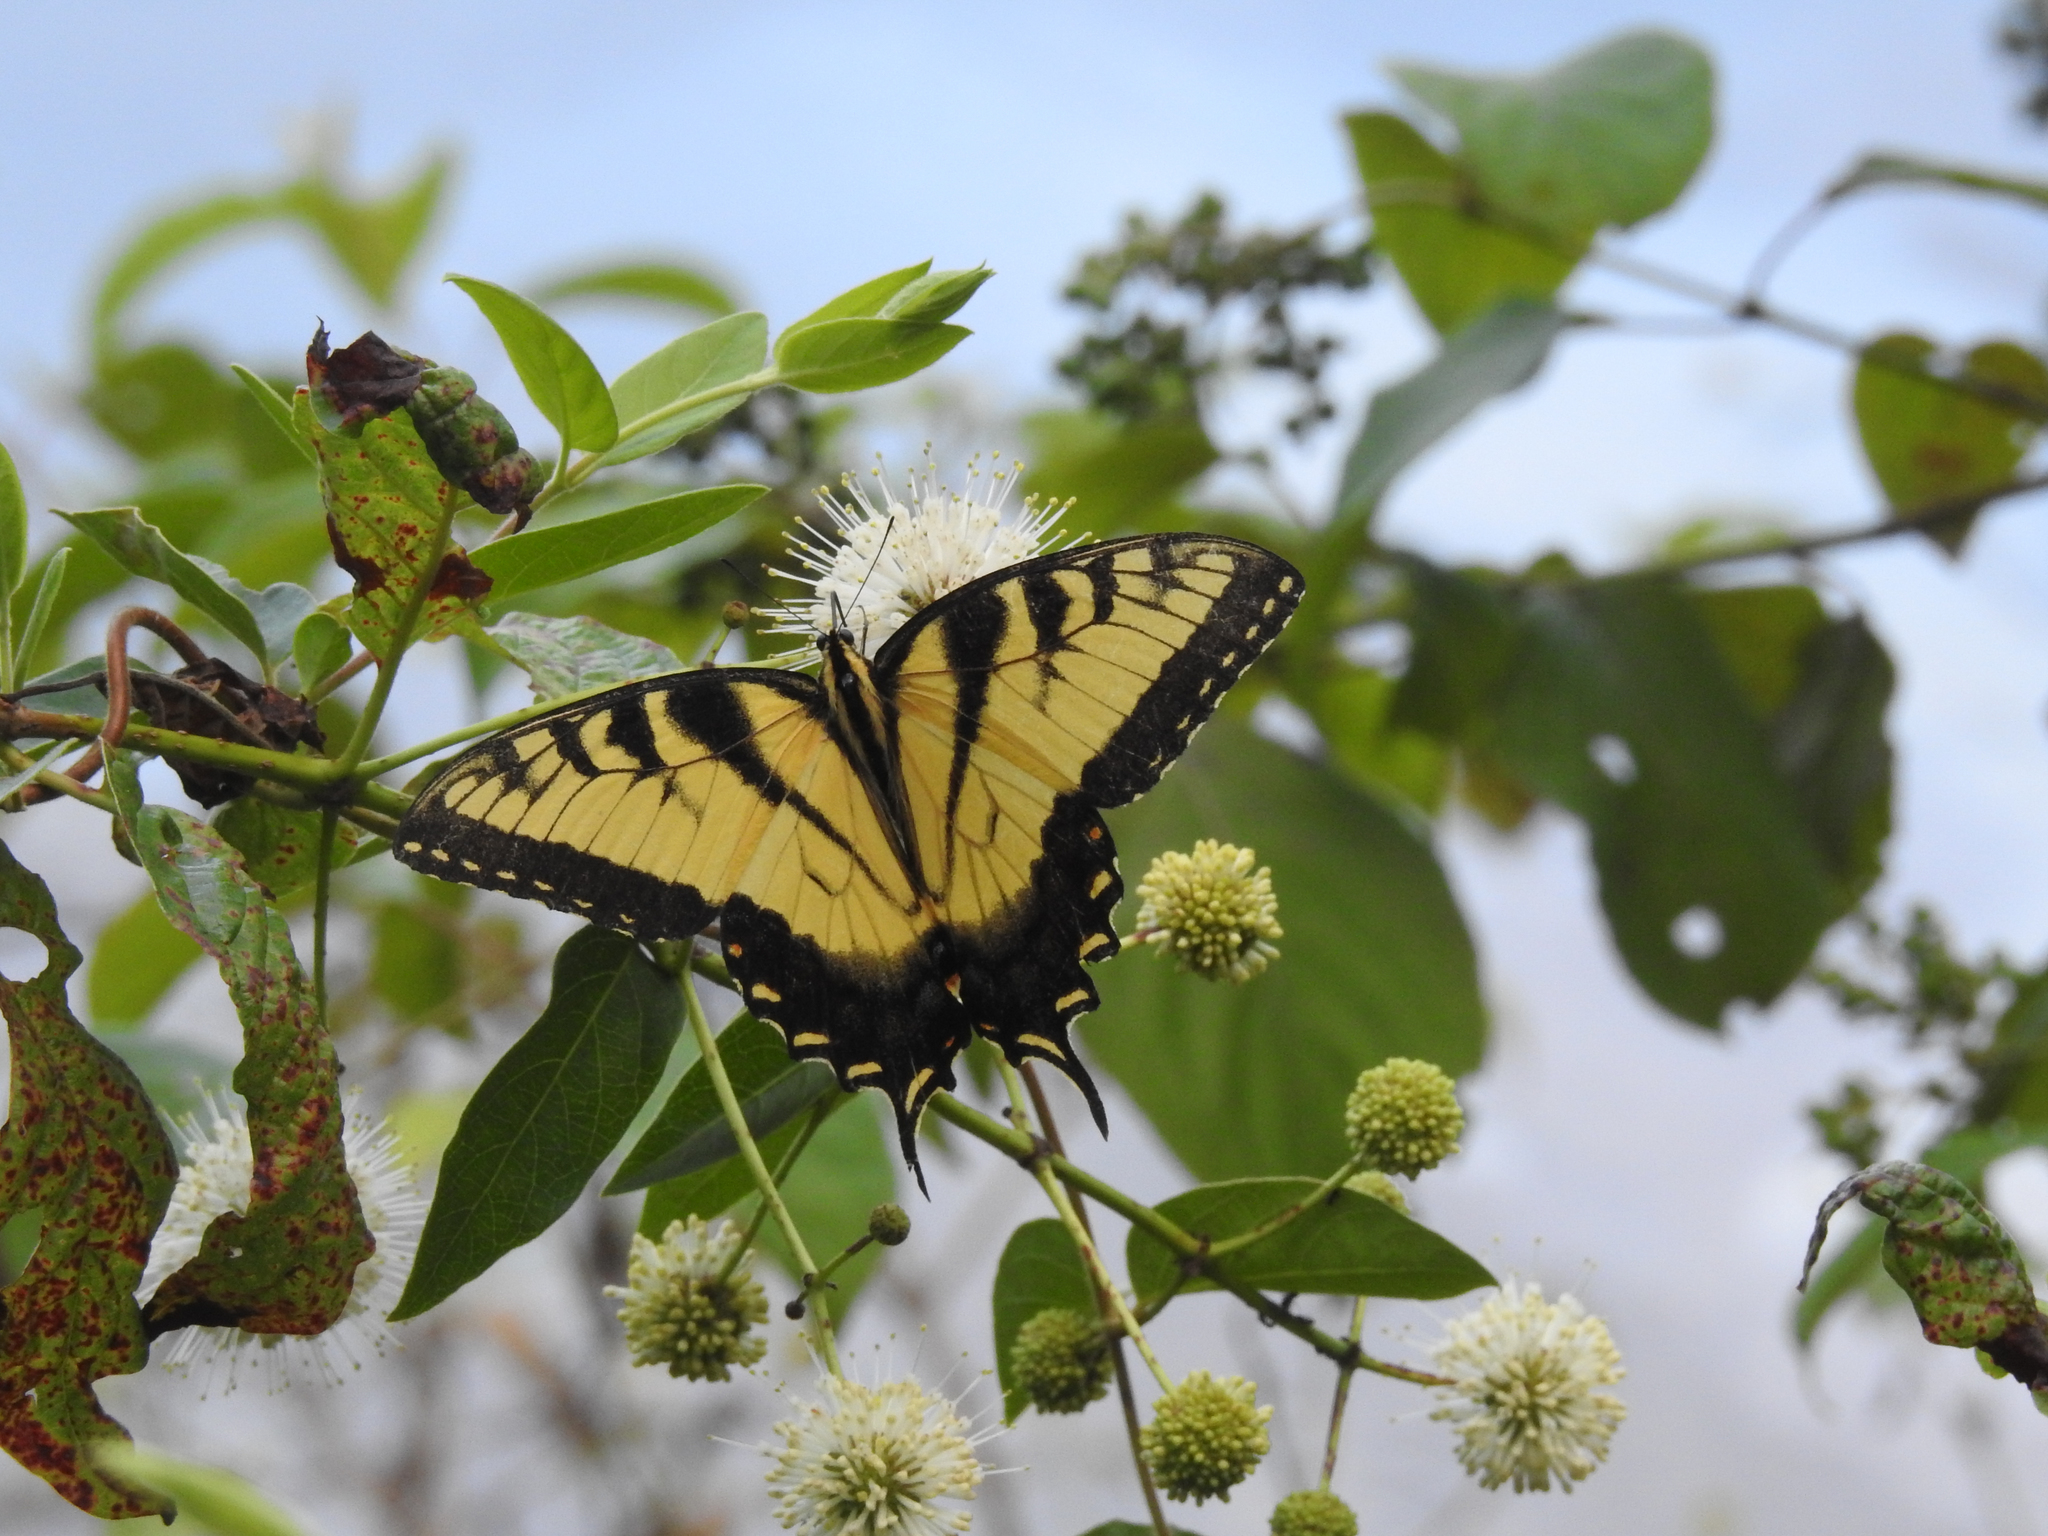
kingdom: Animalia
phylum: Arthropoda
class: Insecta
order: Lepidoptera
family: Papilionidae
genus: Papilio
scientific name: Papilio glaucus
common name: Tiger swallowtail
